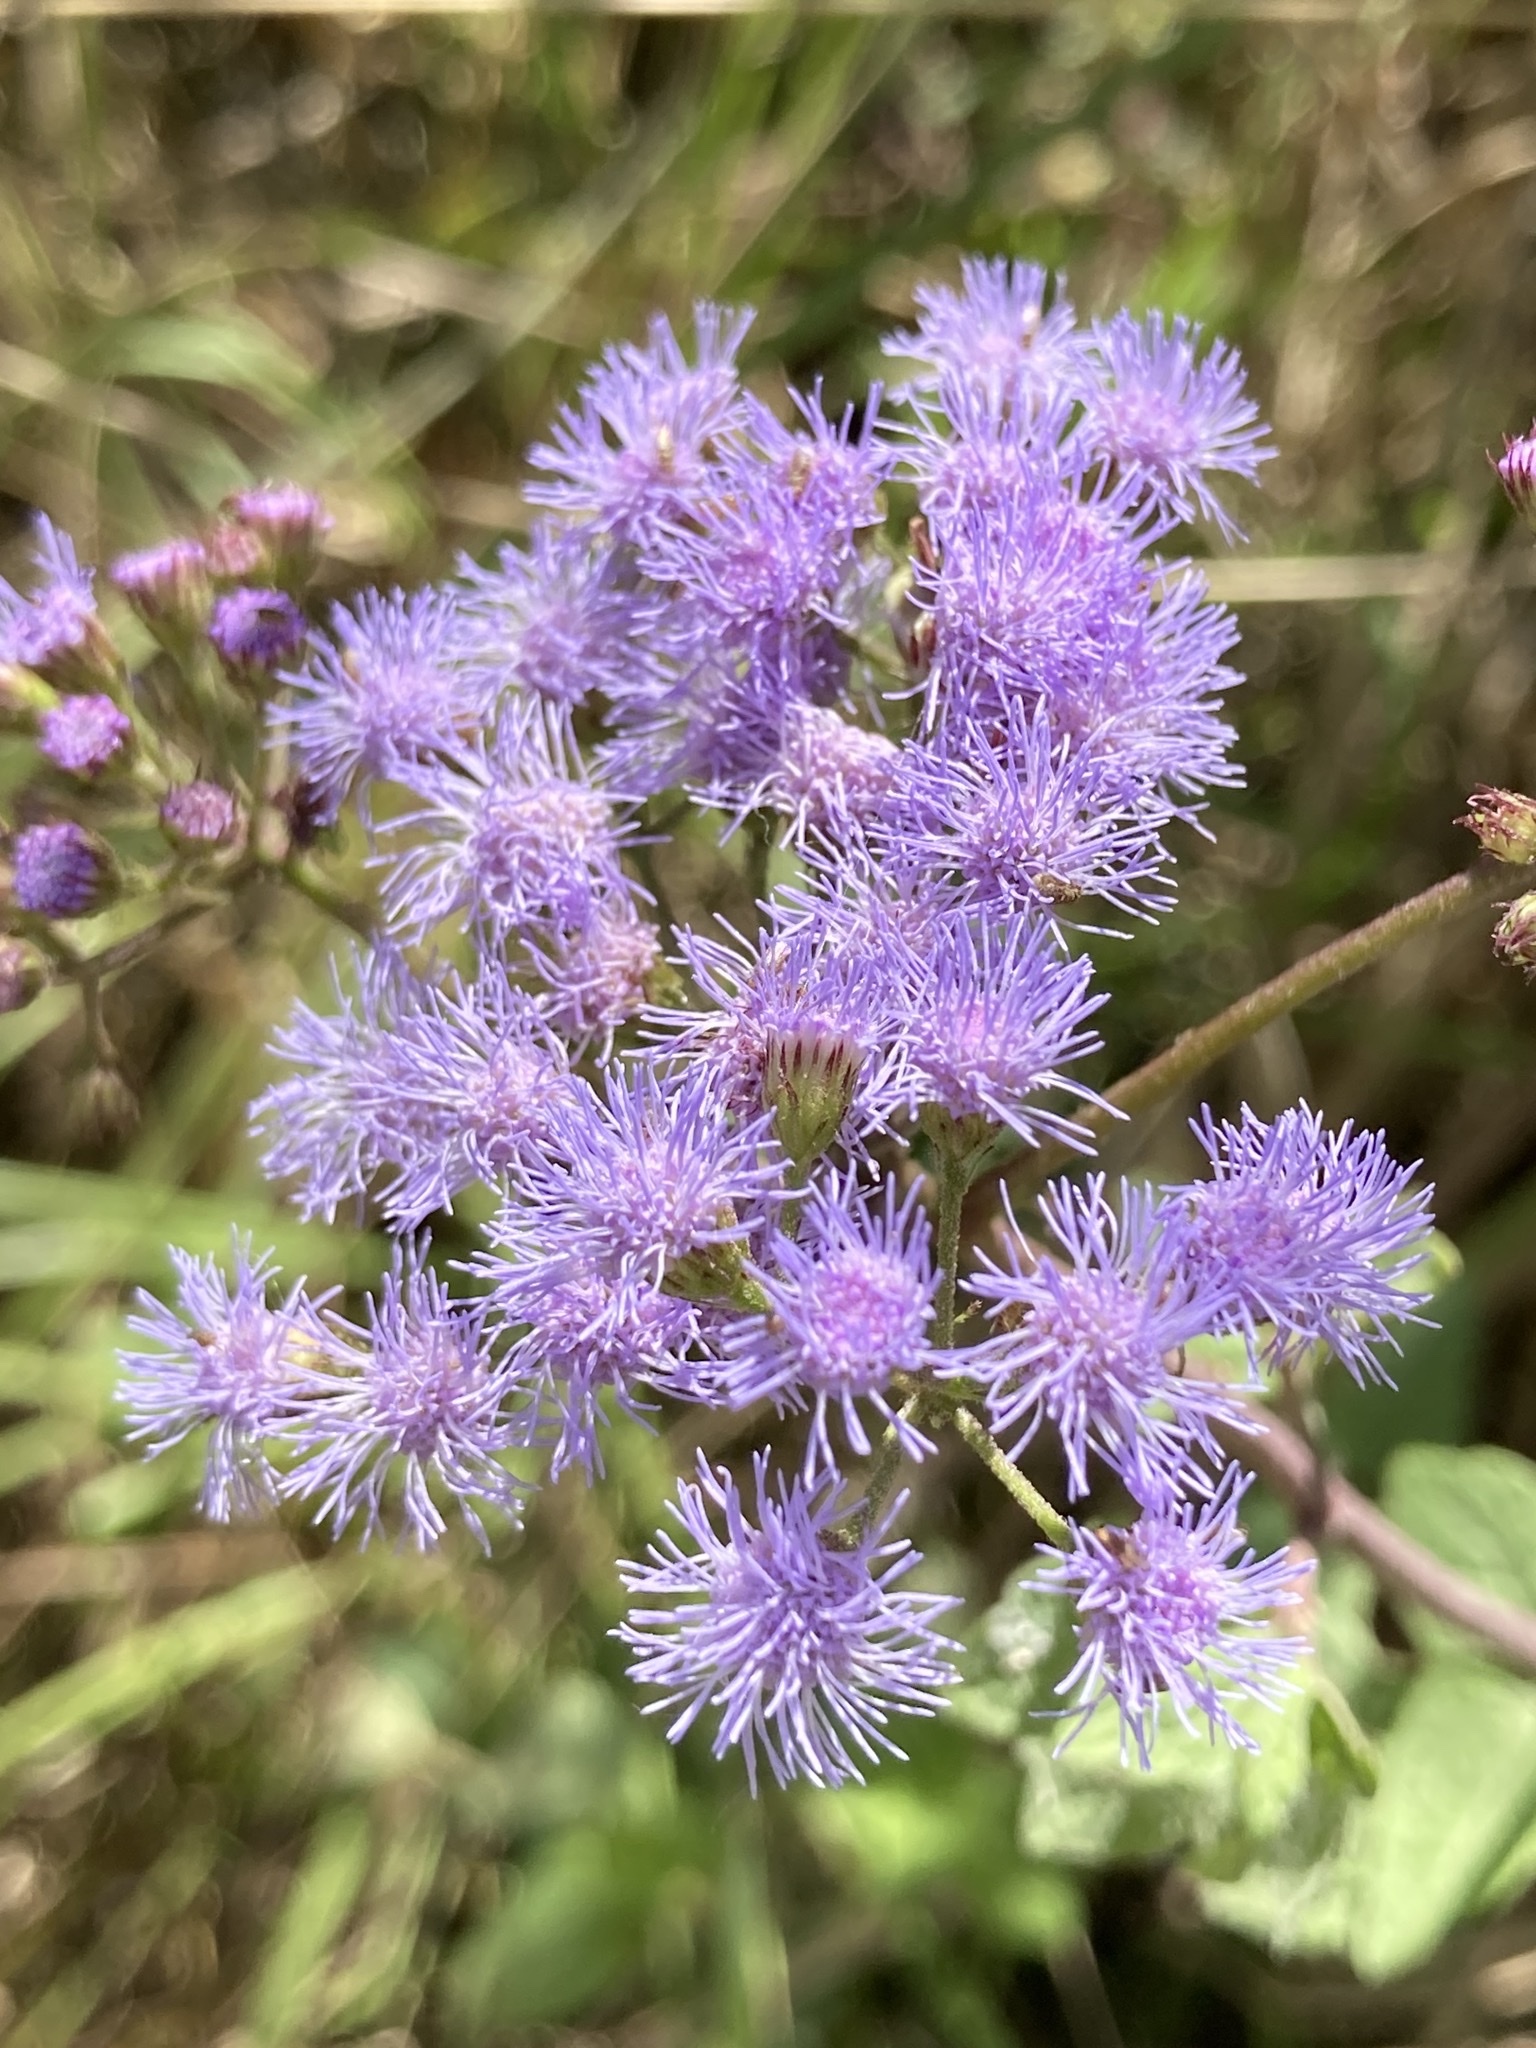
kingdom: Plantae
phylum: Tracheophyta
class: Magnoliopsida
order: Asterales
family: Asteraceae
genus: Conoclinium
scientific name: Conoclinium coelestinum
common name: Blue mistflower
